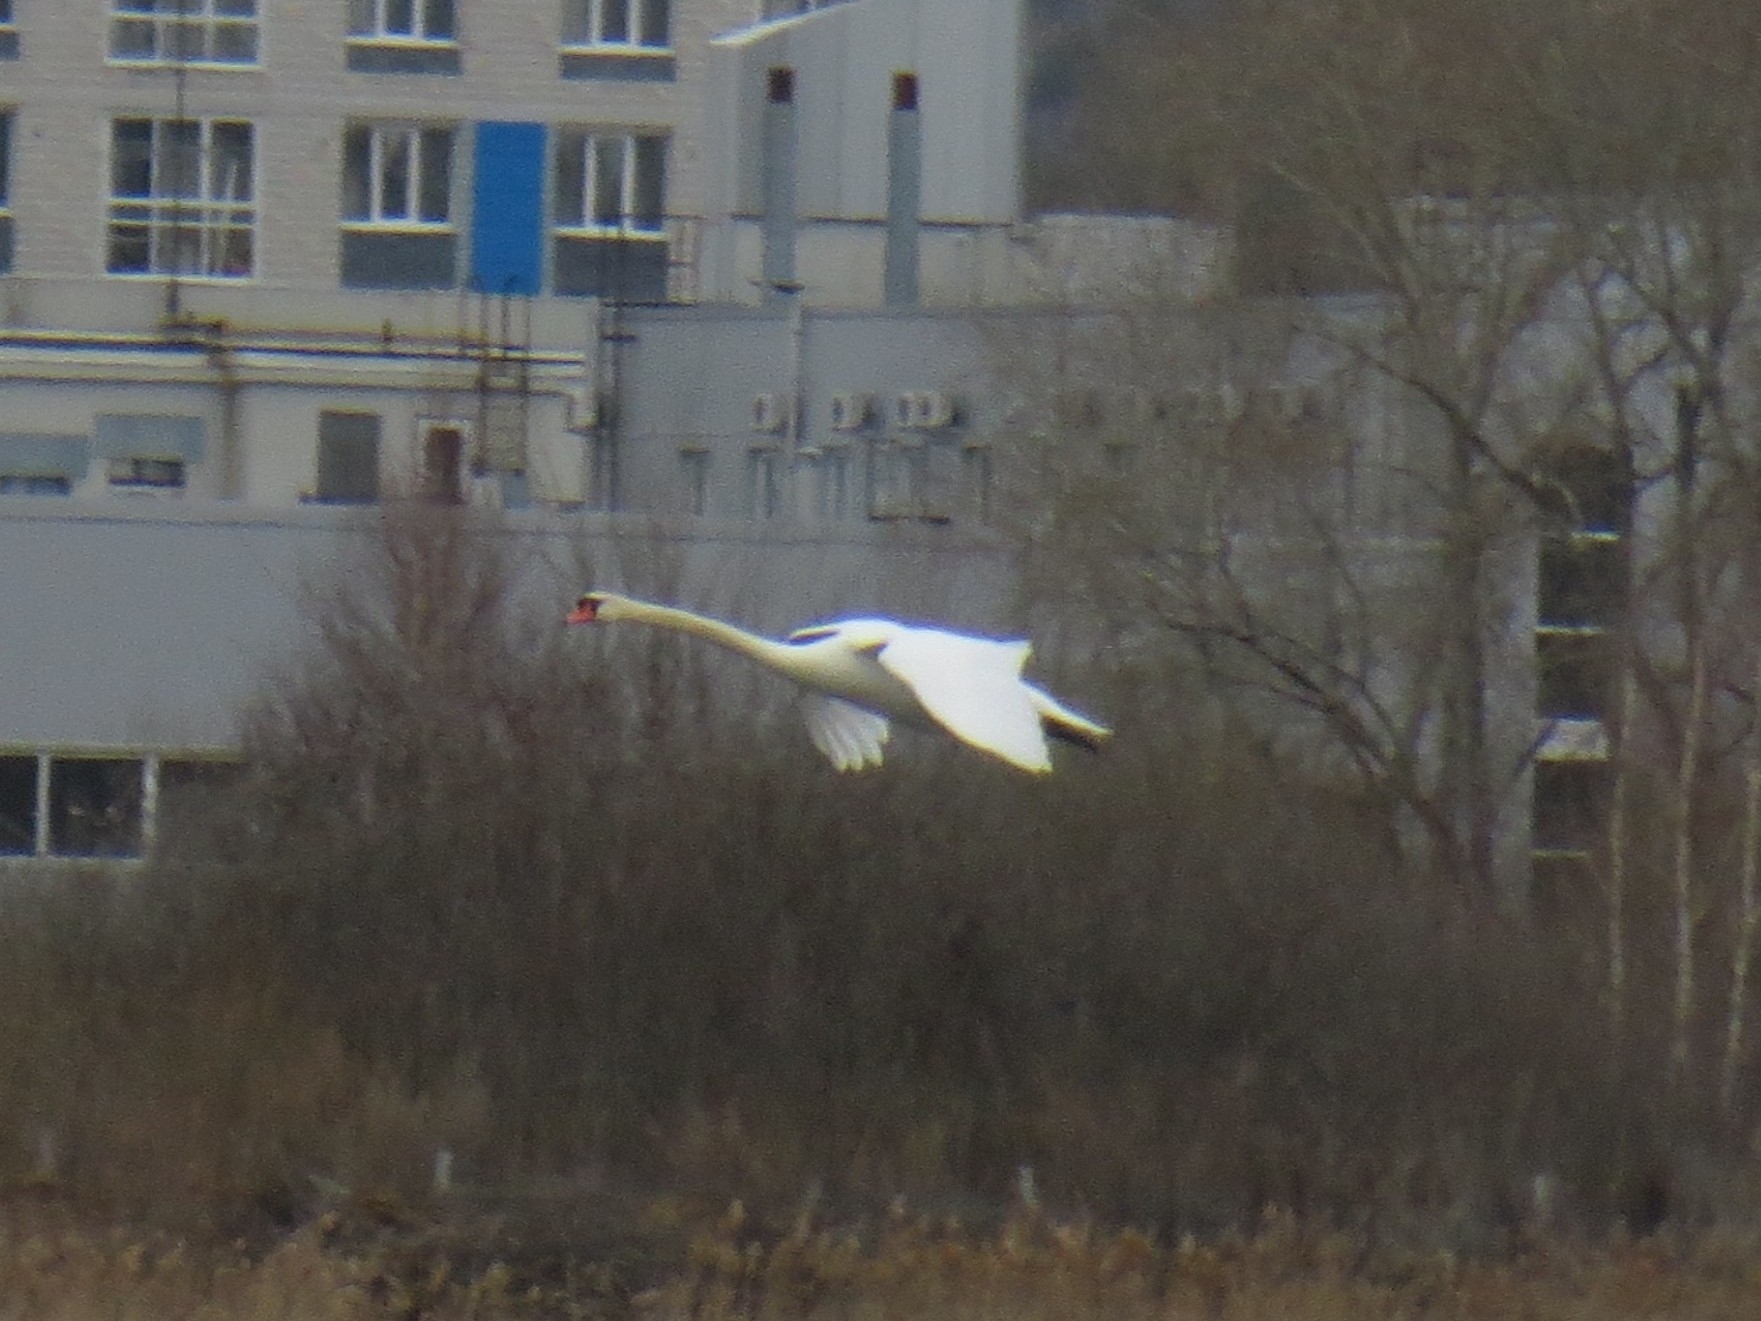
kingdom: Animalia
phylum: Chordata
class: Aves
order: Anseriformes
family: Anatidae
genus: Cygnus
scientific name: Cygnus olor
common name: Mute swan
